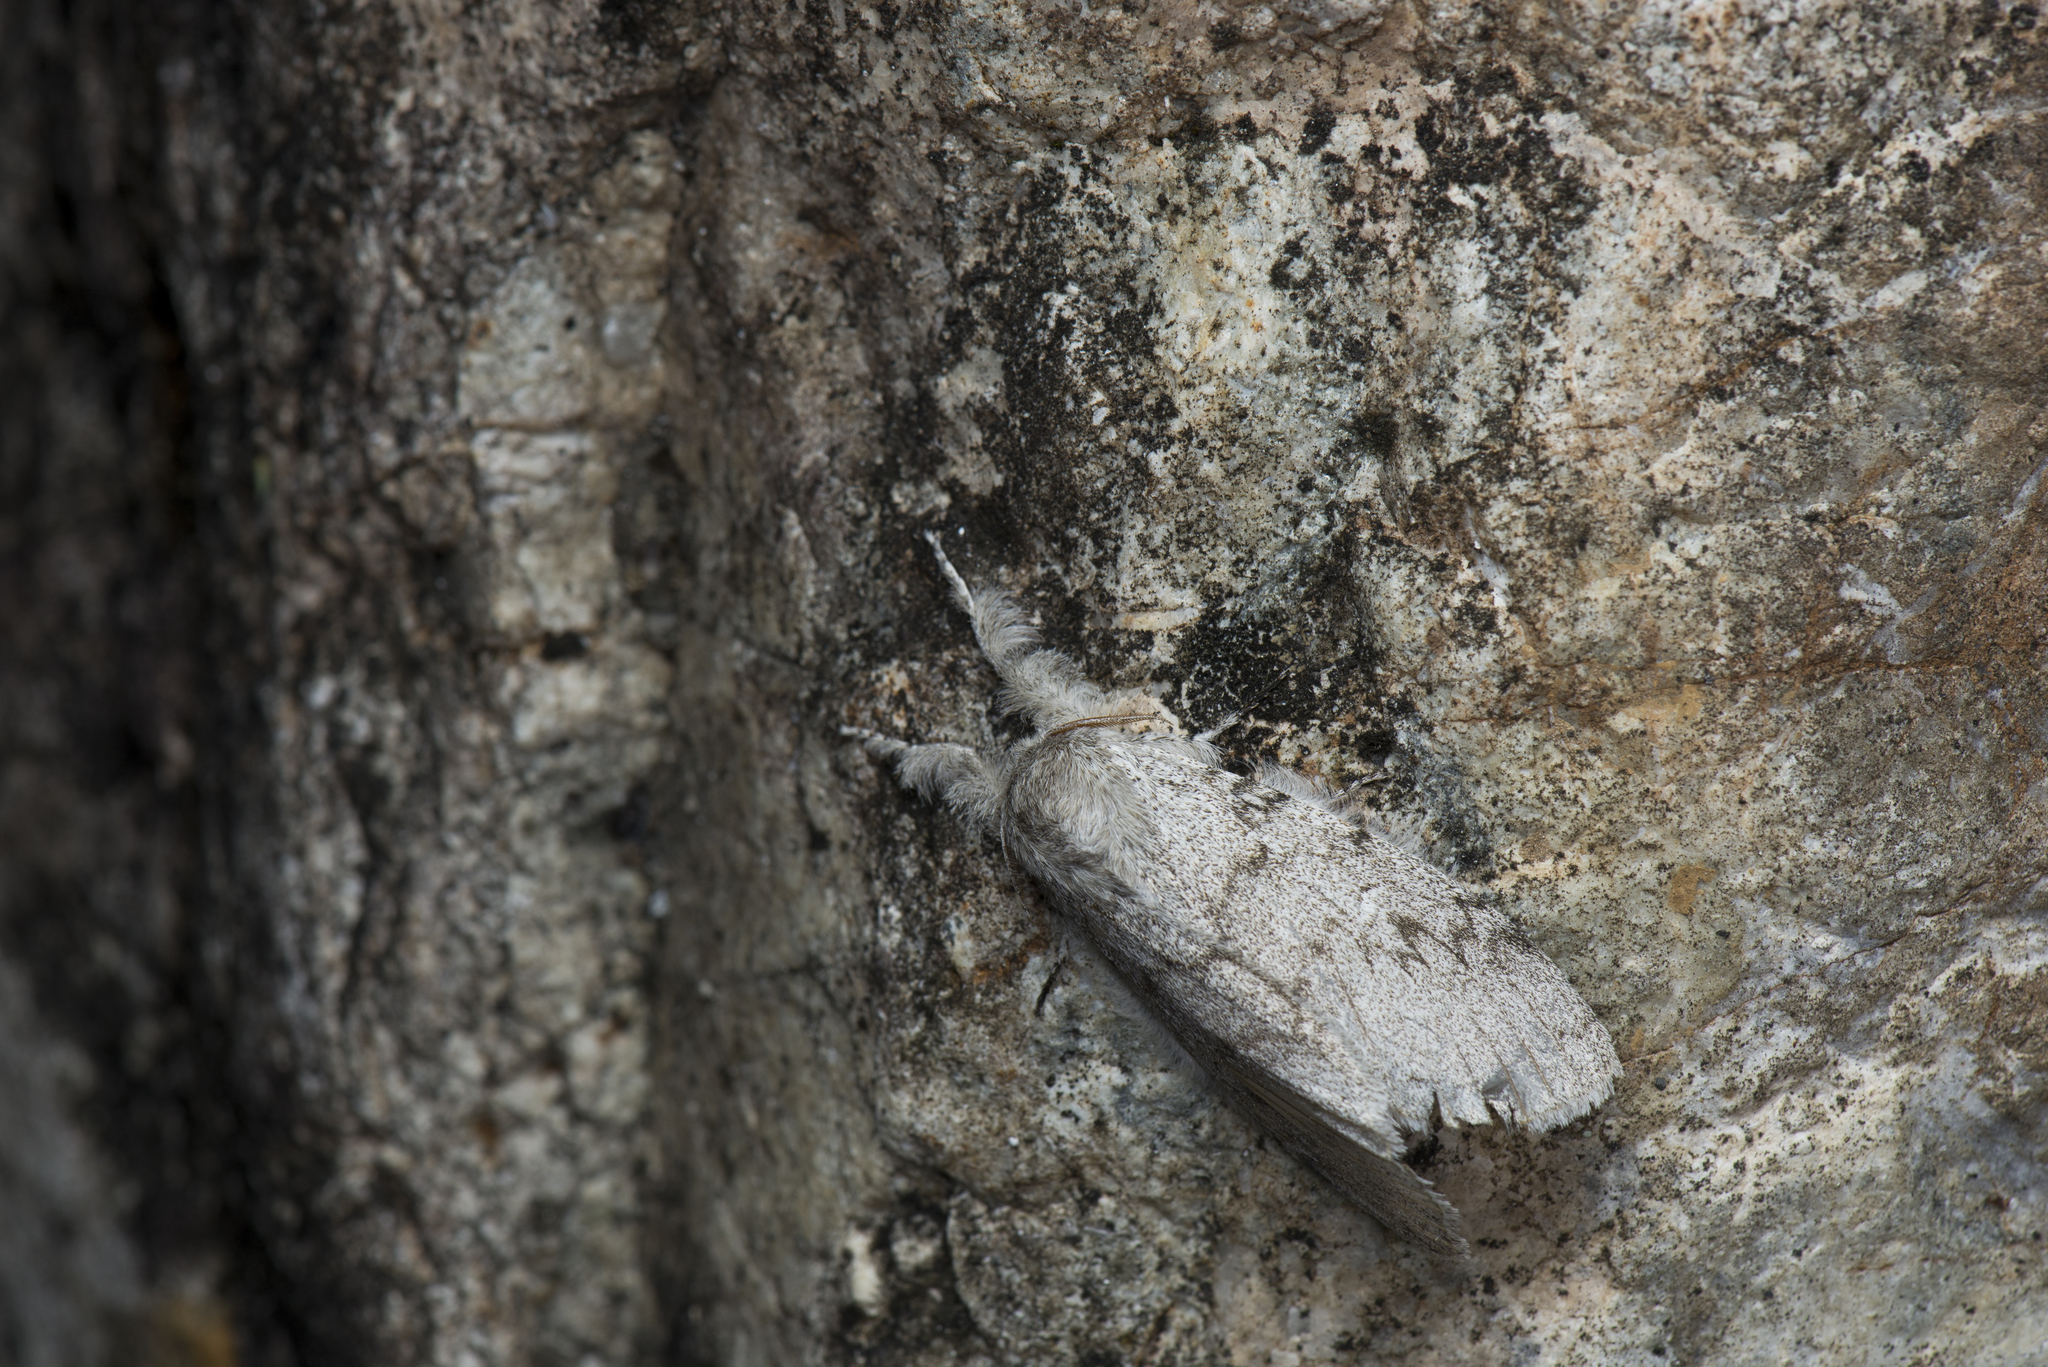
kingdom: Animalia
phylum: Arthropoda
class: Insecta
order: Lepidoptera
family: Erebidae
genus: Calliteara
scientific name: Calliteara lunulata
